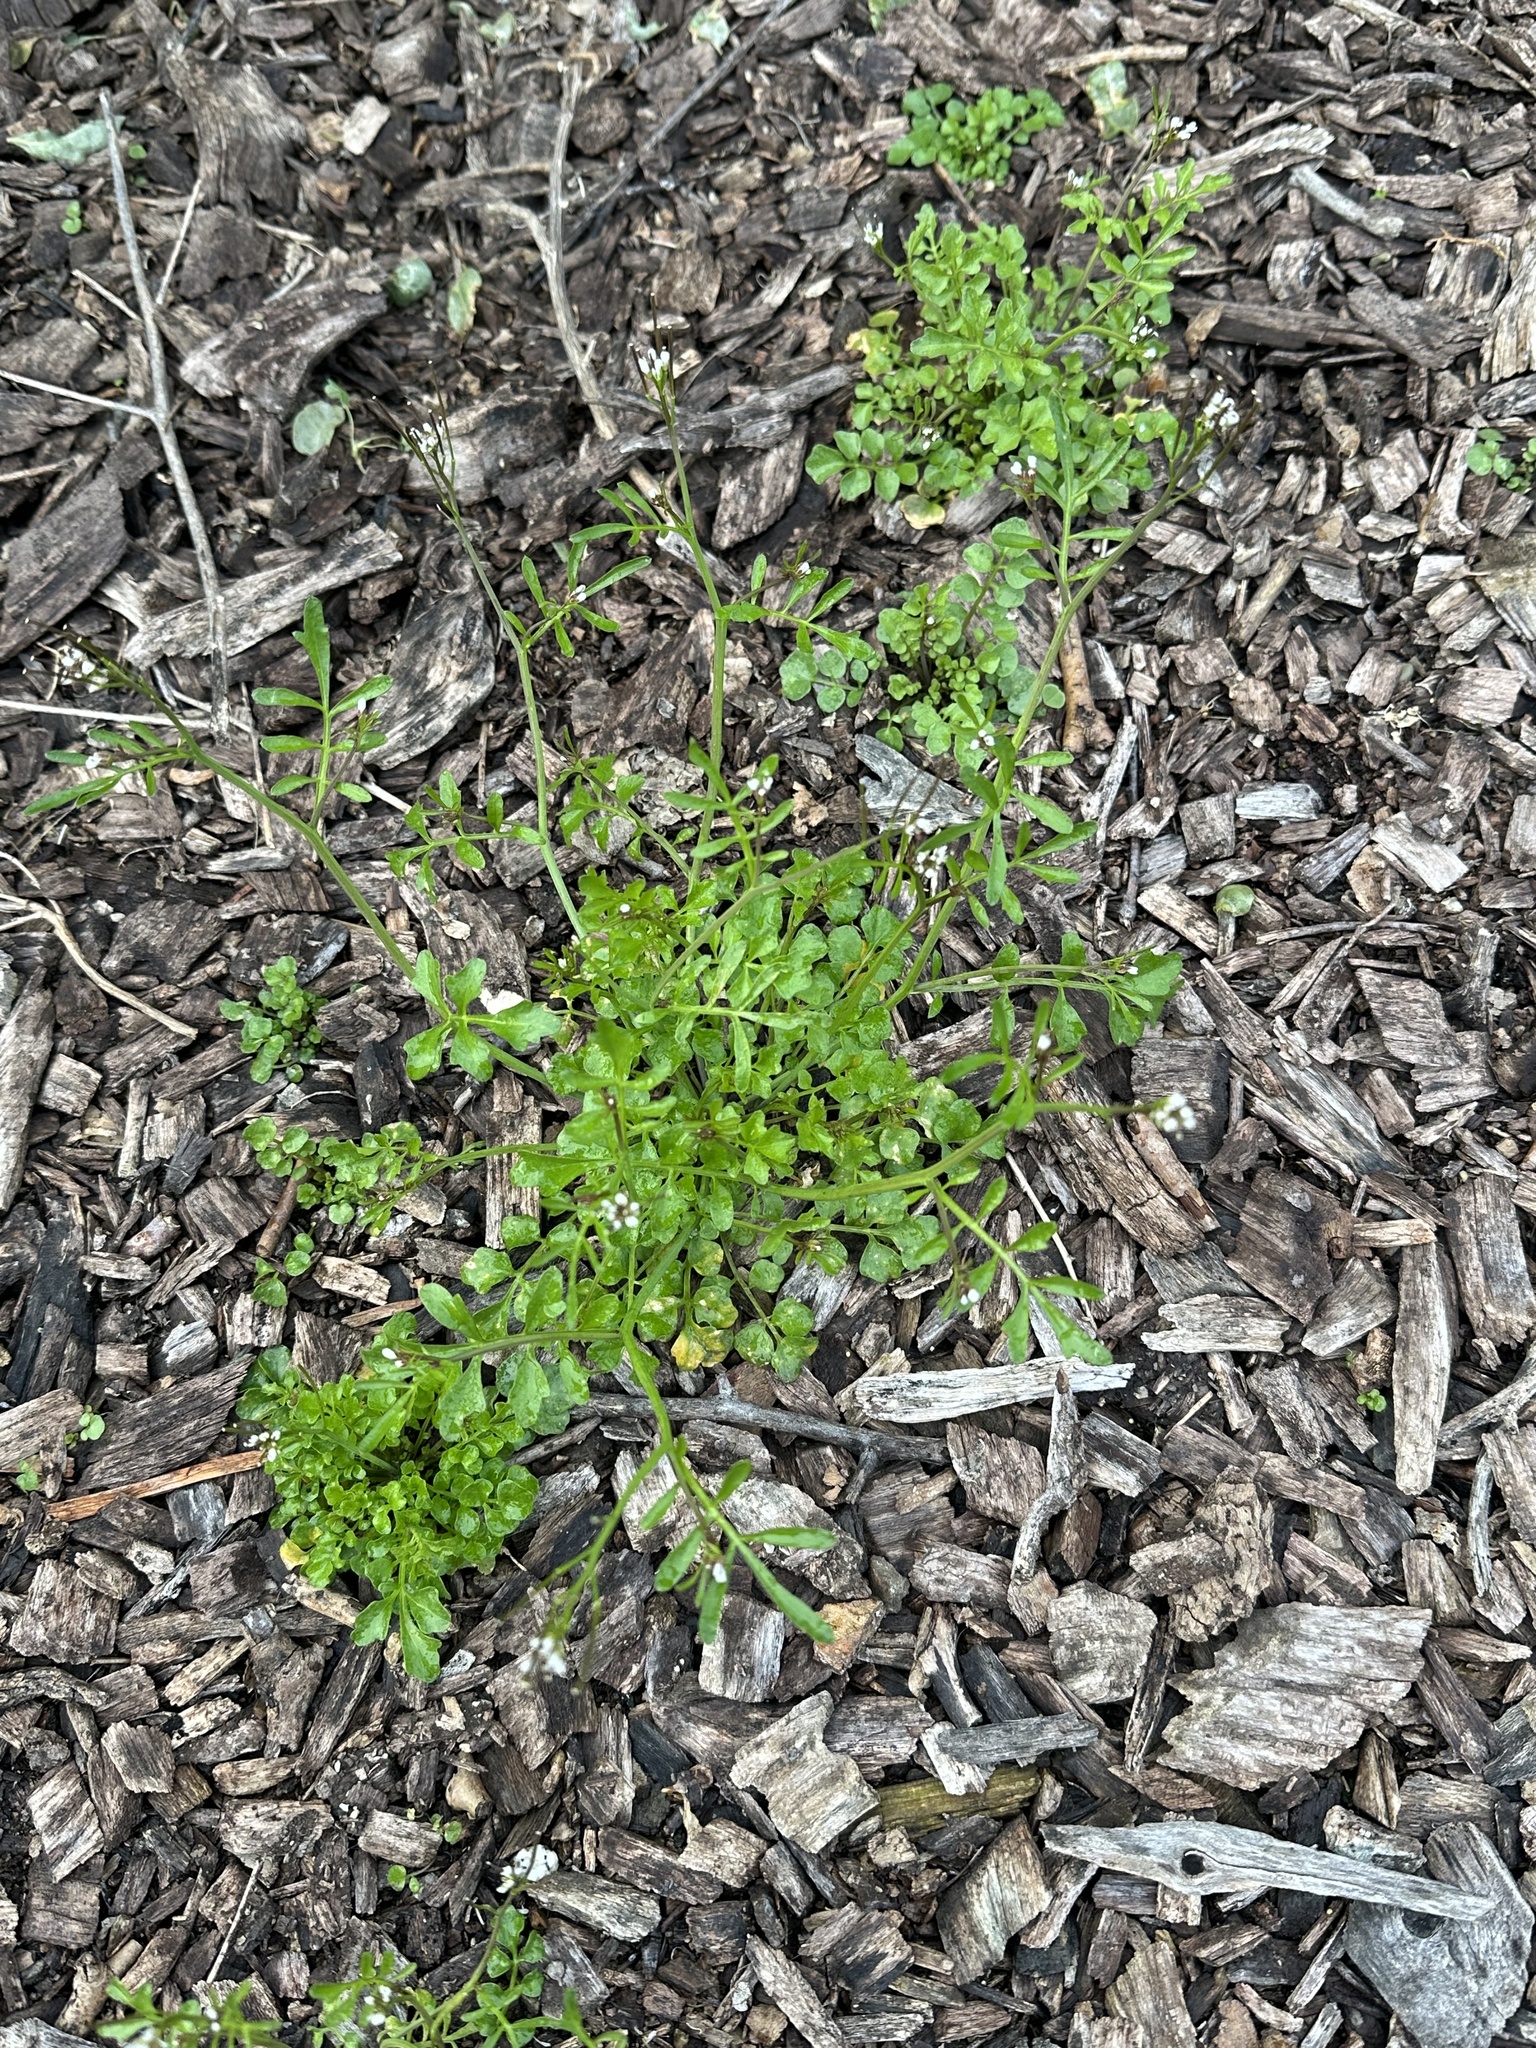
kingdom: Plantae
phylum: Tracheophyta
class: Magnoliopsida
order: Brassicales
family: Brassicaceae
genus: Cardamine
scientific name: Cardamine hirsuta
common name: Hairy bittercress
